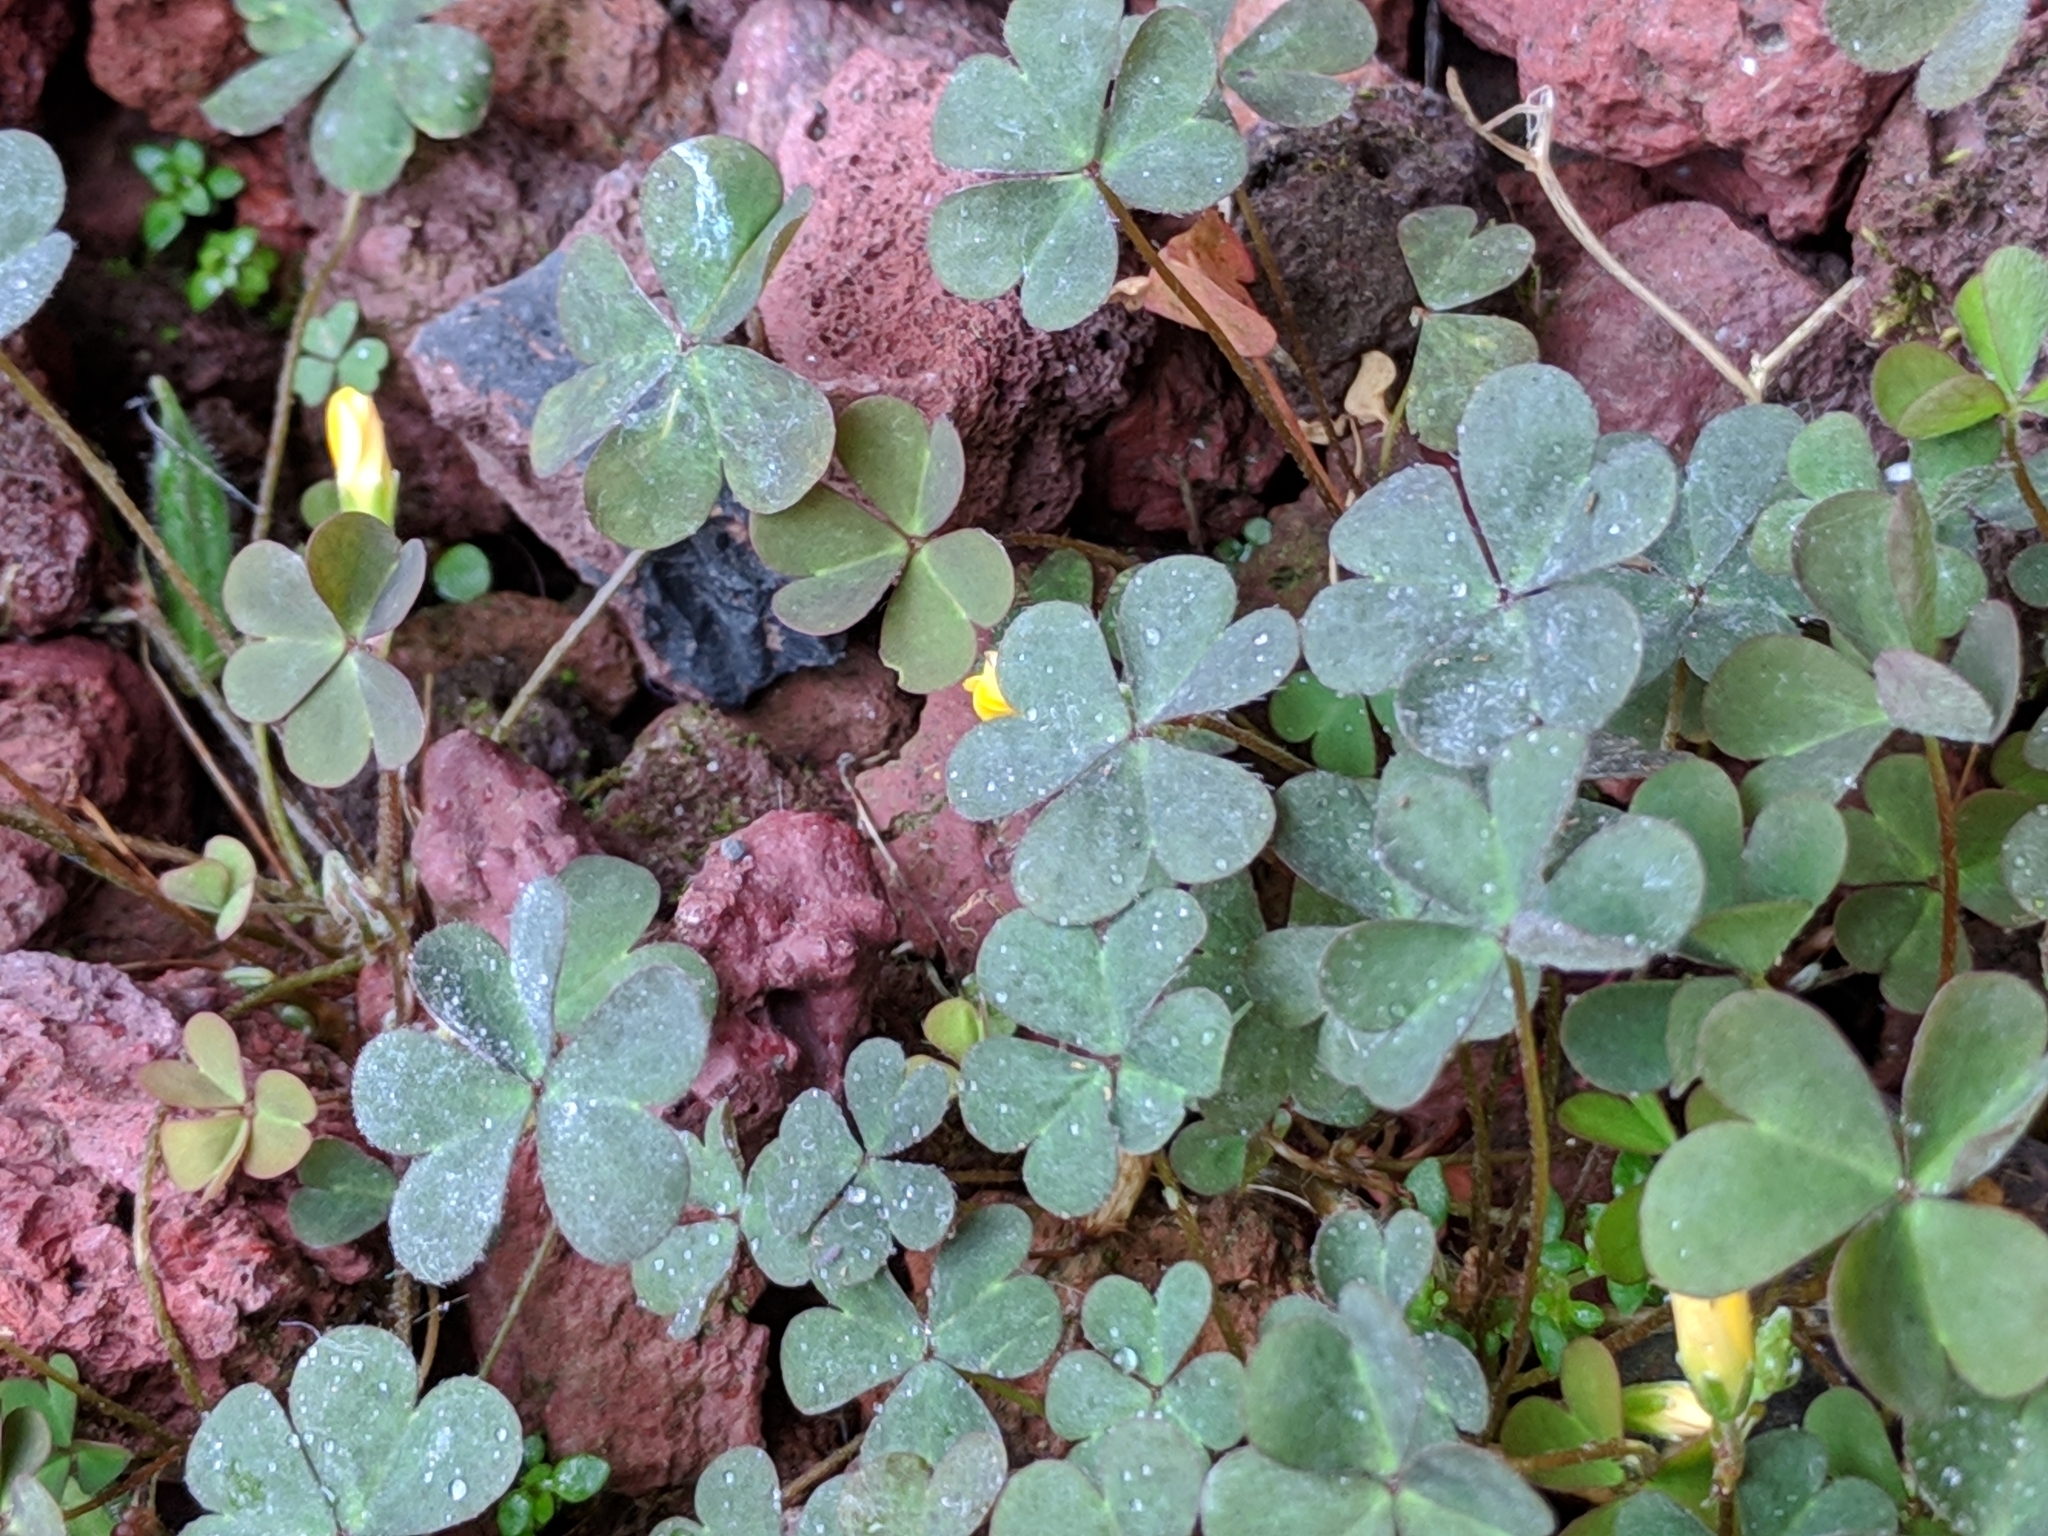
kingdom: Plantae
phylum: Tracheophyta
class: Magnoliopsida
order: Oxalidales
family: Oxalidaceae
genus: Oxalis
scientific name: Oxalis corniculata
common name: Procumbent yellow-sorrel
